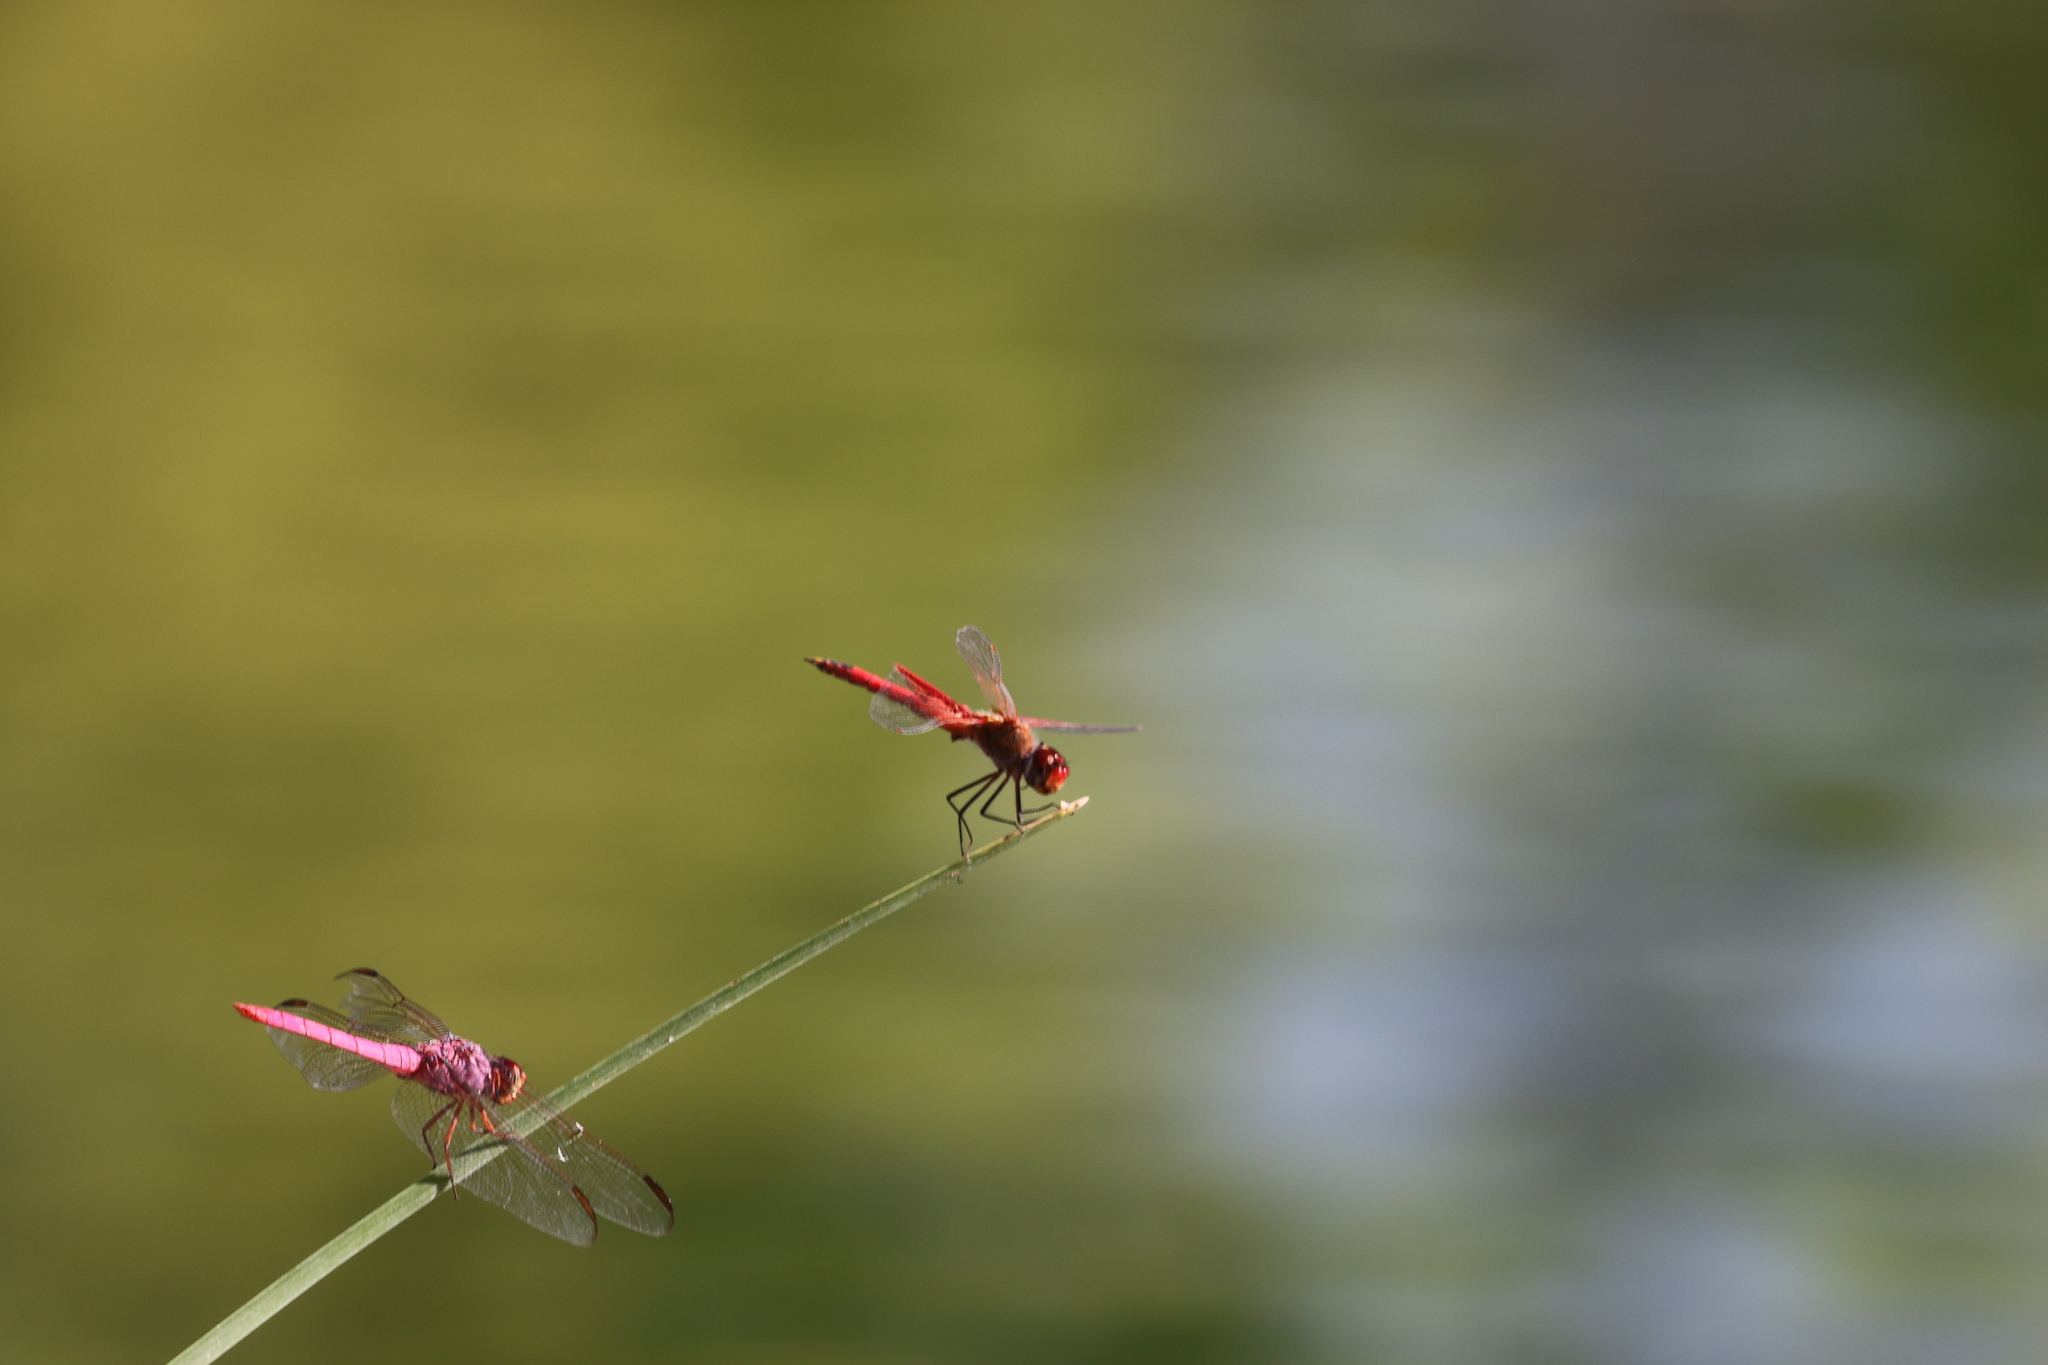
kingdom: Animalia
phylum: Arthropoda
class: Insecta
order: Odonata
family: Libellulidae
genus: Orthemis
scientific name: Orthemis ferruginea
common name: Roseate skimmer
